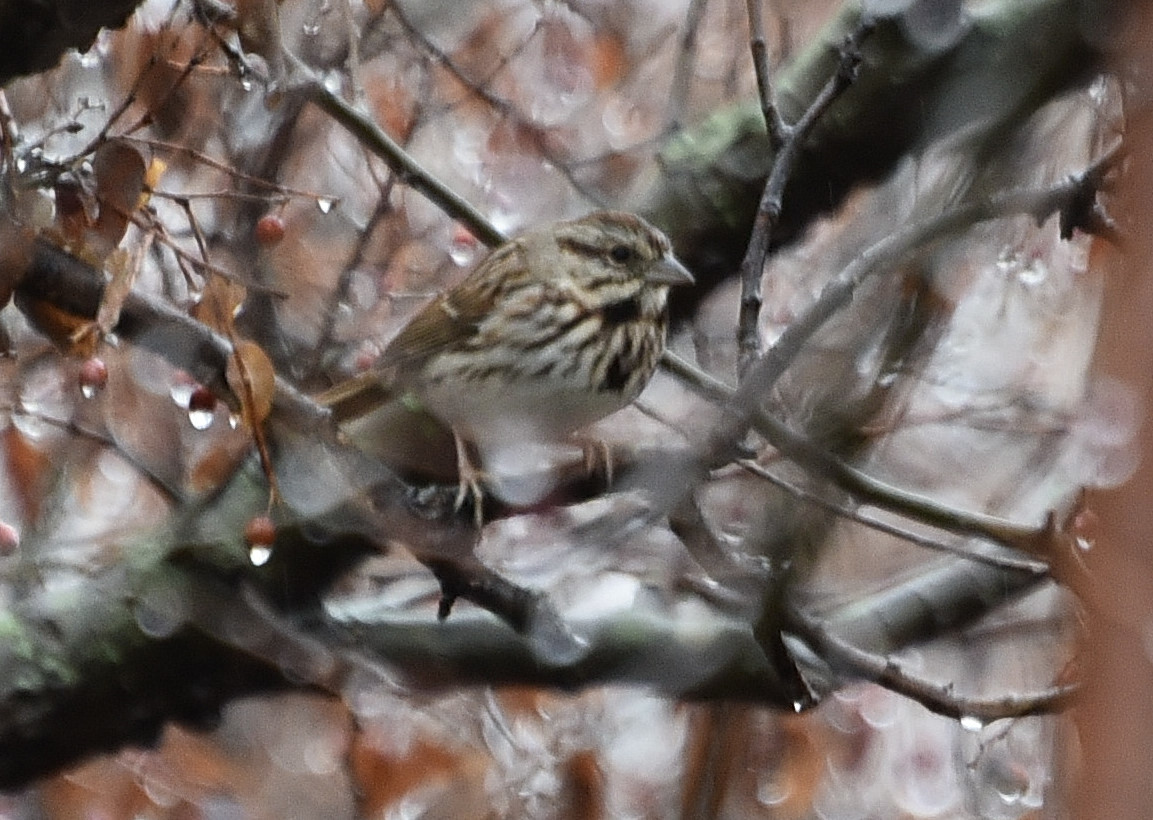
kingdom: Animalia
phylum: Chordata
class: Aves
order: Passeriformes
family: Passerellidae
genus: Melospiza
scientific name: Melospiza melodia
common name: Song sparrow
